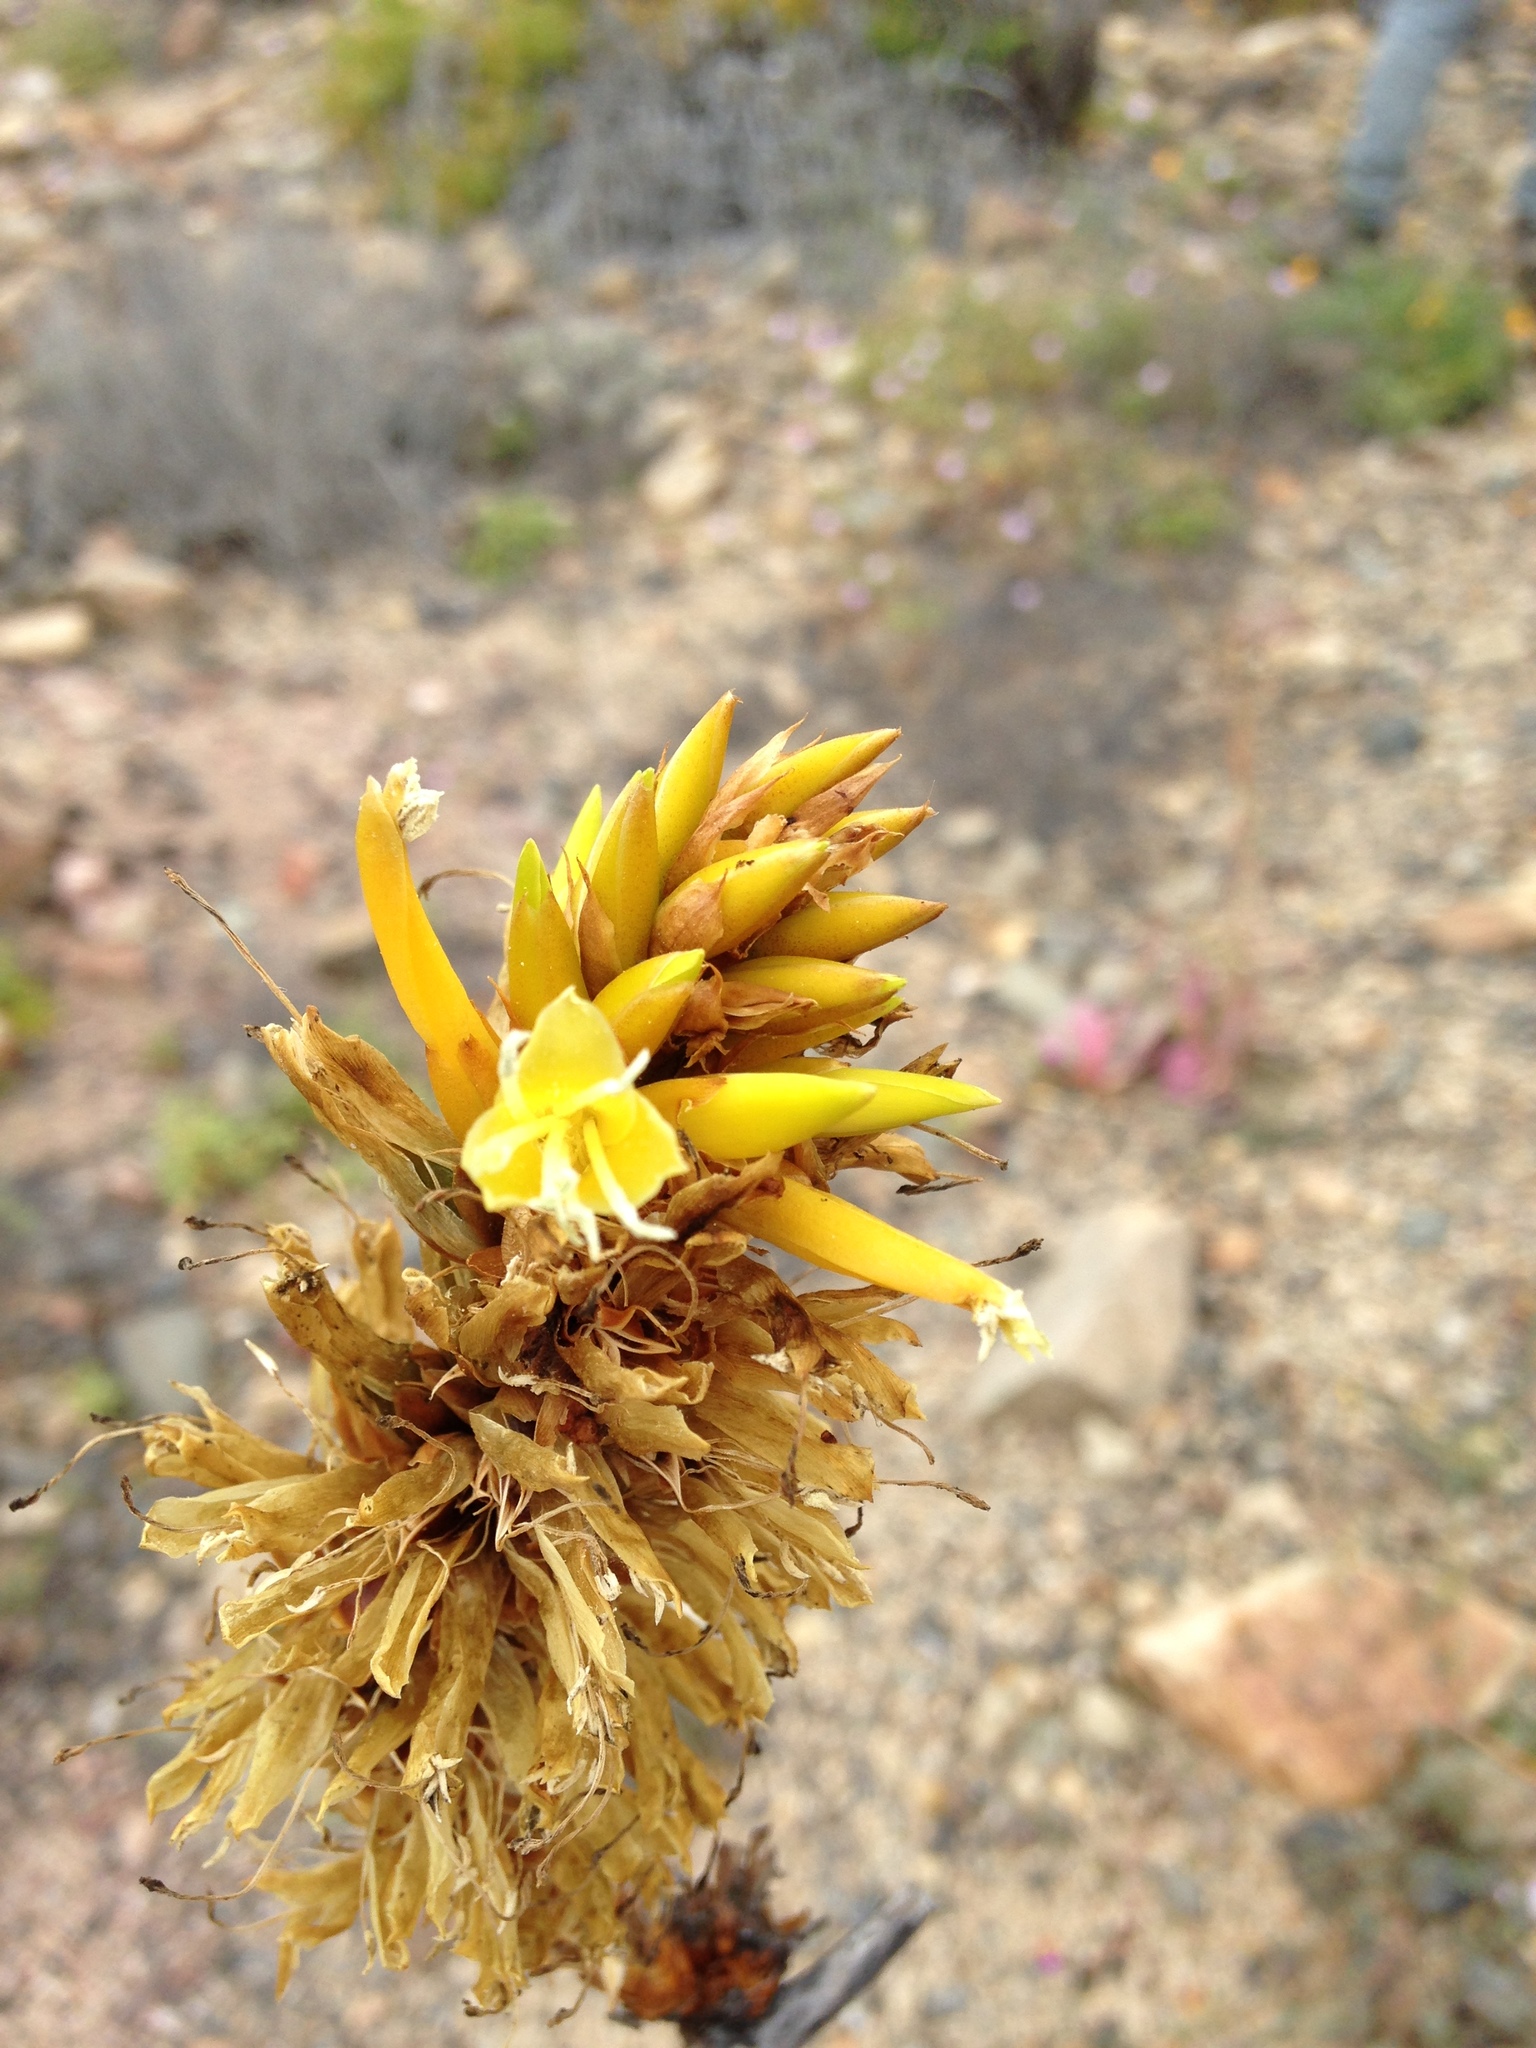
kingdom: Plantae
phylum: Tracheophyta
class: Liliopsida
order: Poales
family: Bromeliaceae
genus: Deuterocohnia
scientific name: Deuterocohnia chrysantha
